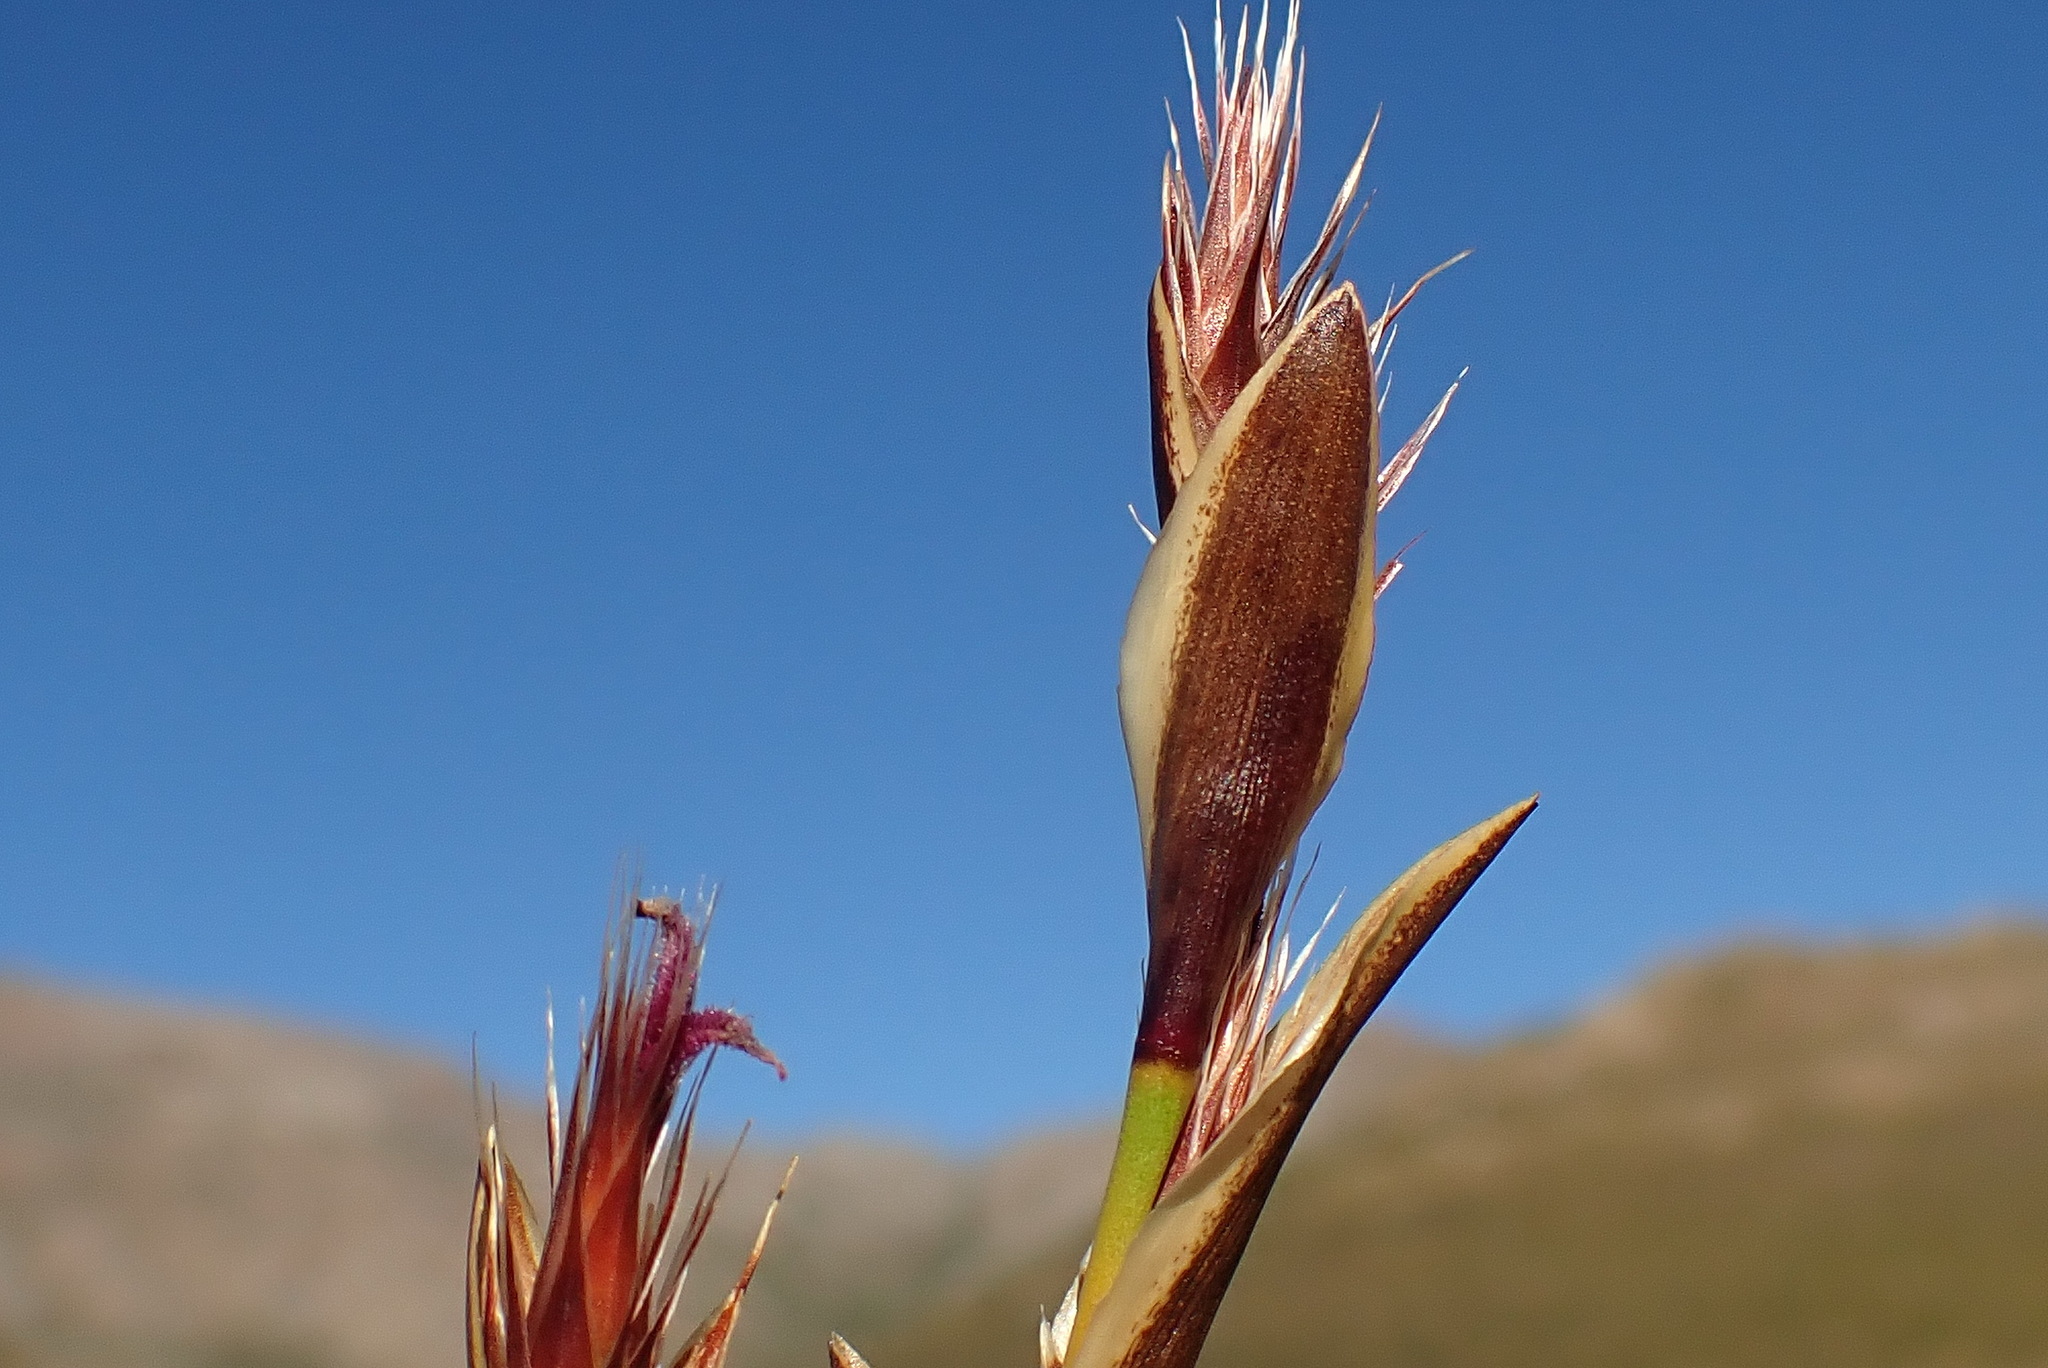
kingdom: Plantae
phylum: Tracheophyta
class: Liliopsida
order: Poales
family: Restionaceae
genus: Hypodiscus
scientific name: Hypodiscus aristatus
